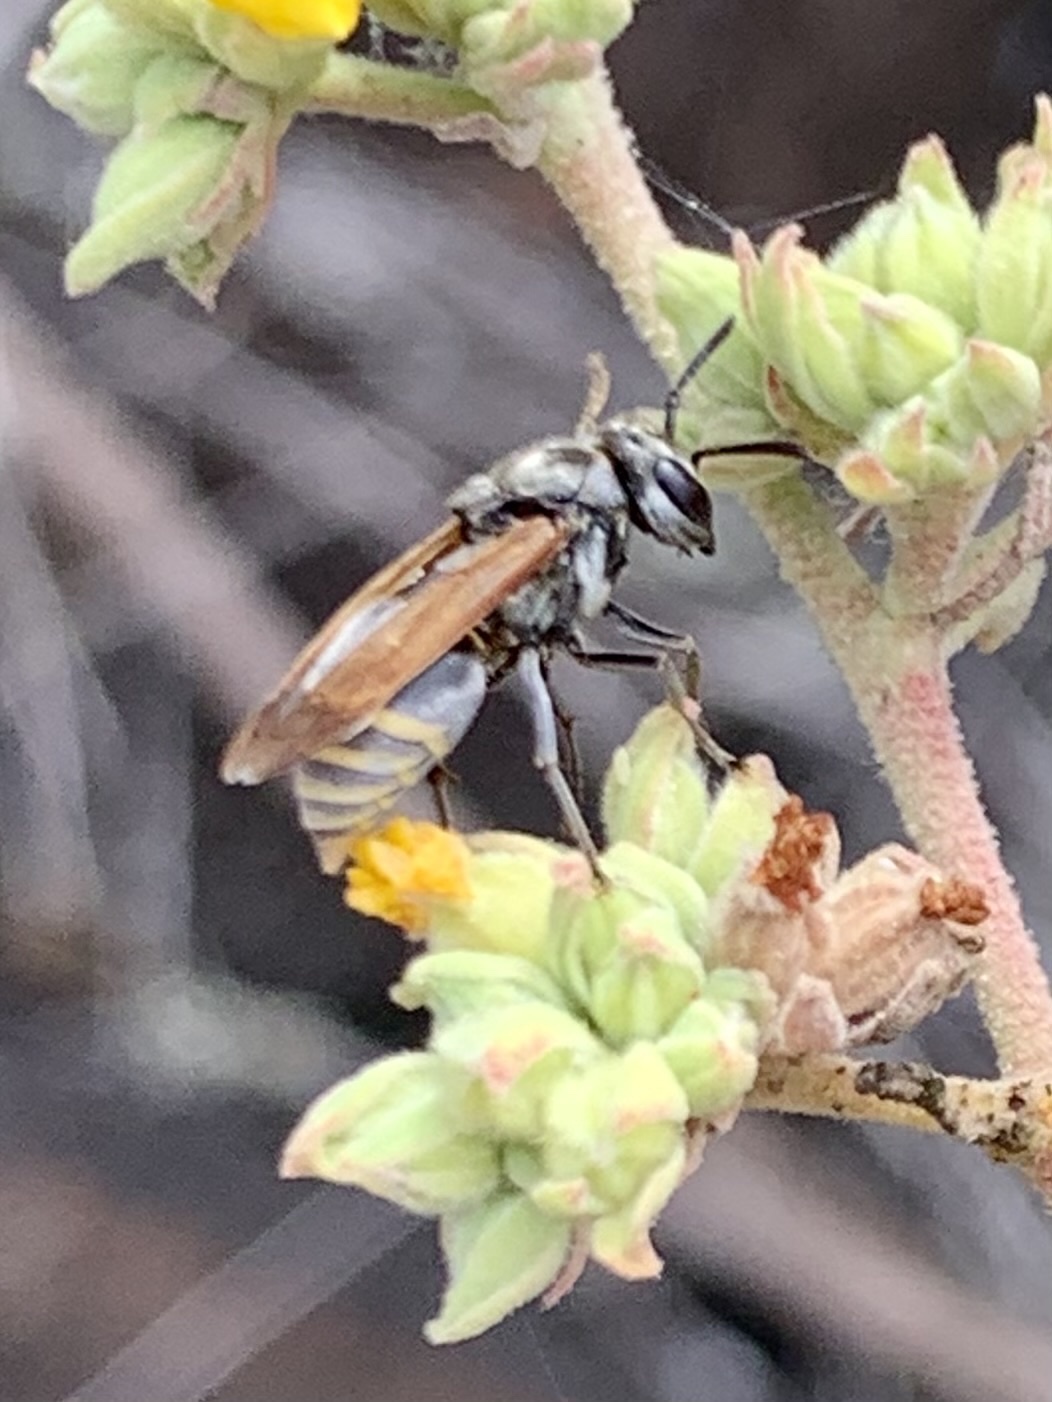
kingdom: Animalia
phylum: Arthropoda
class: Insecta
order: Hymenoptera
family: Vespidae
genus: Brachygastra
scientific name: Brachygastra lecheguana
